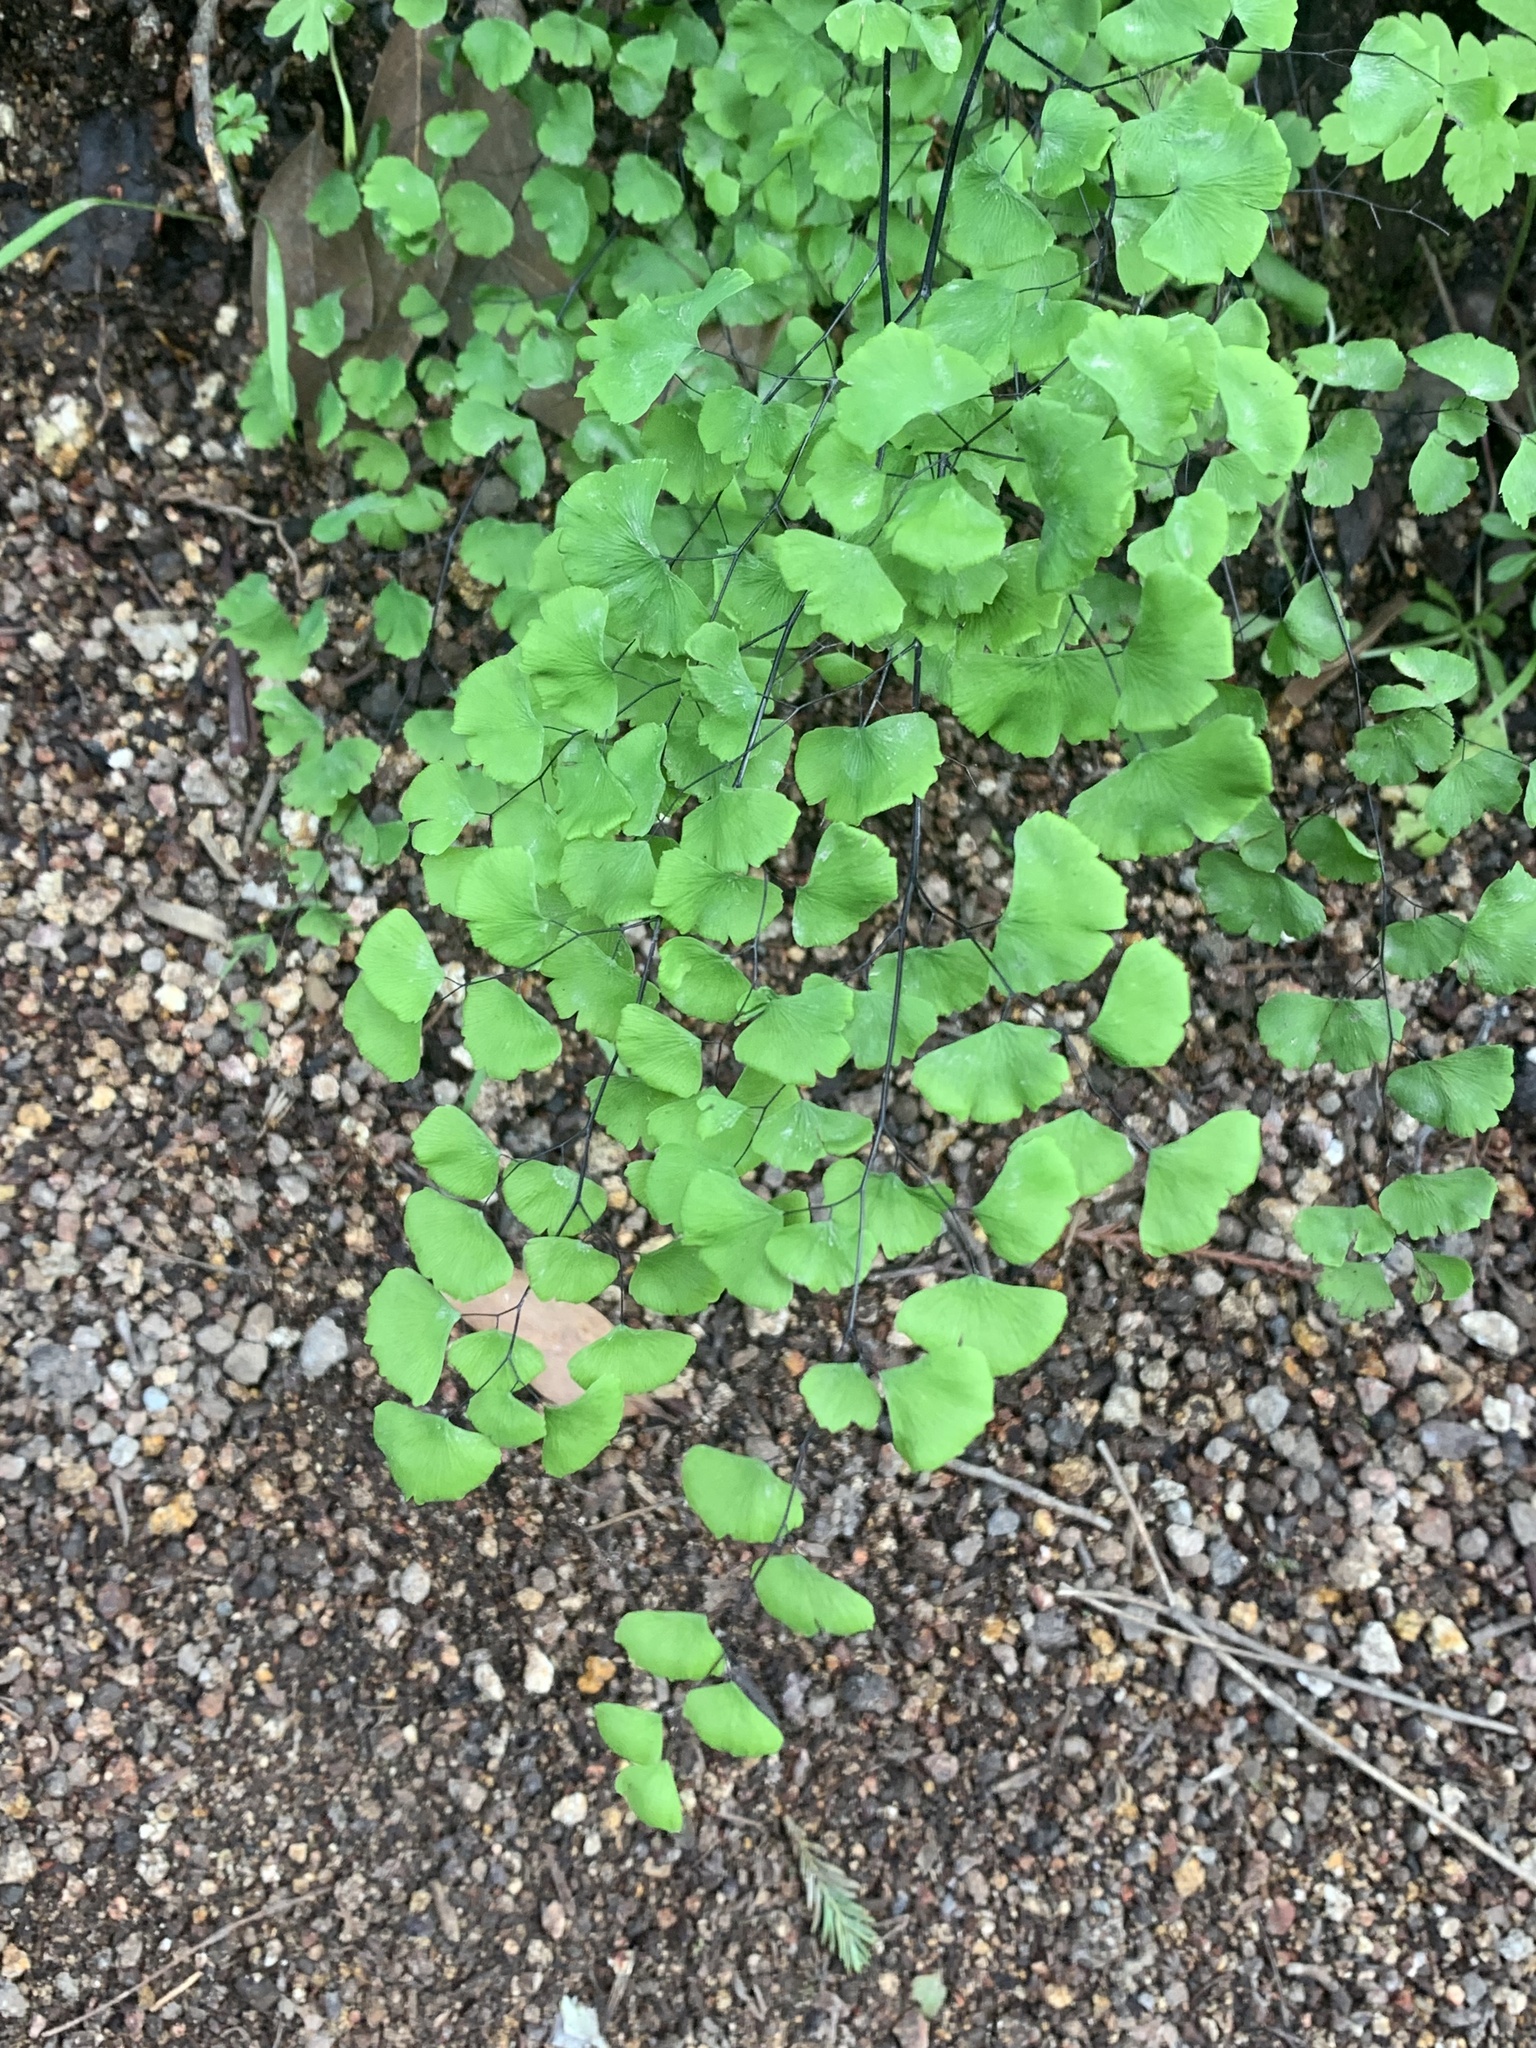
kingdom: Plantae
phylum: Tracheophyta
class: Polypodiopsida
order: Polypodiales
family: Pteridaceae
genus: Adiantum
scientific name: Adiantum jordanii
